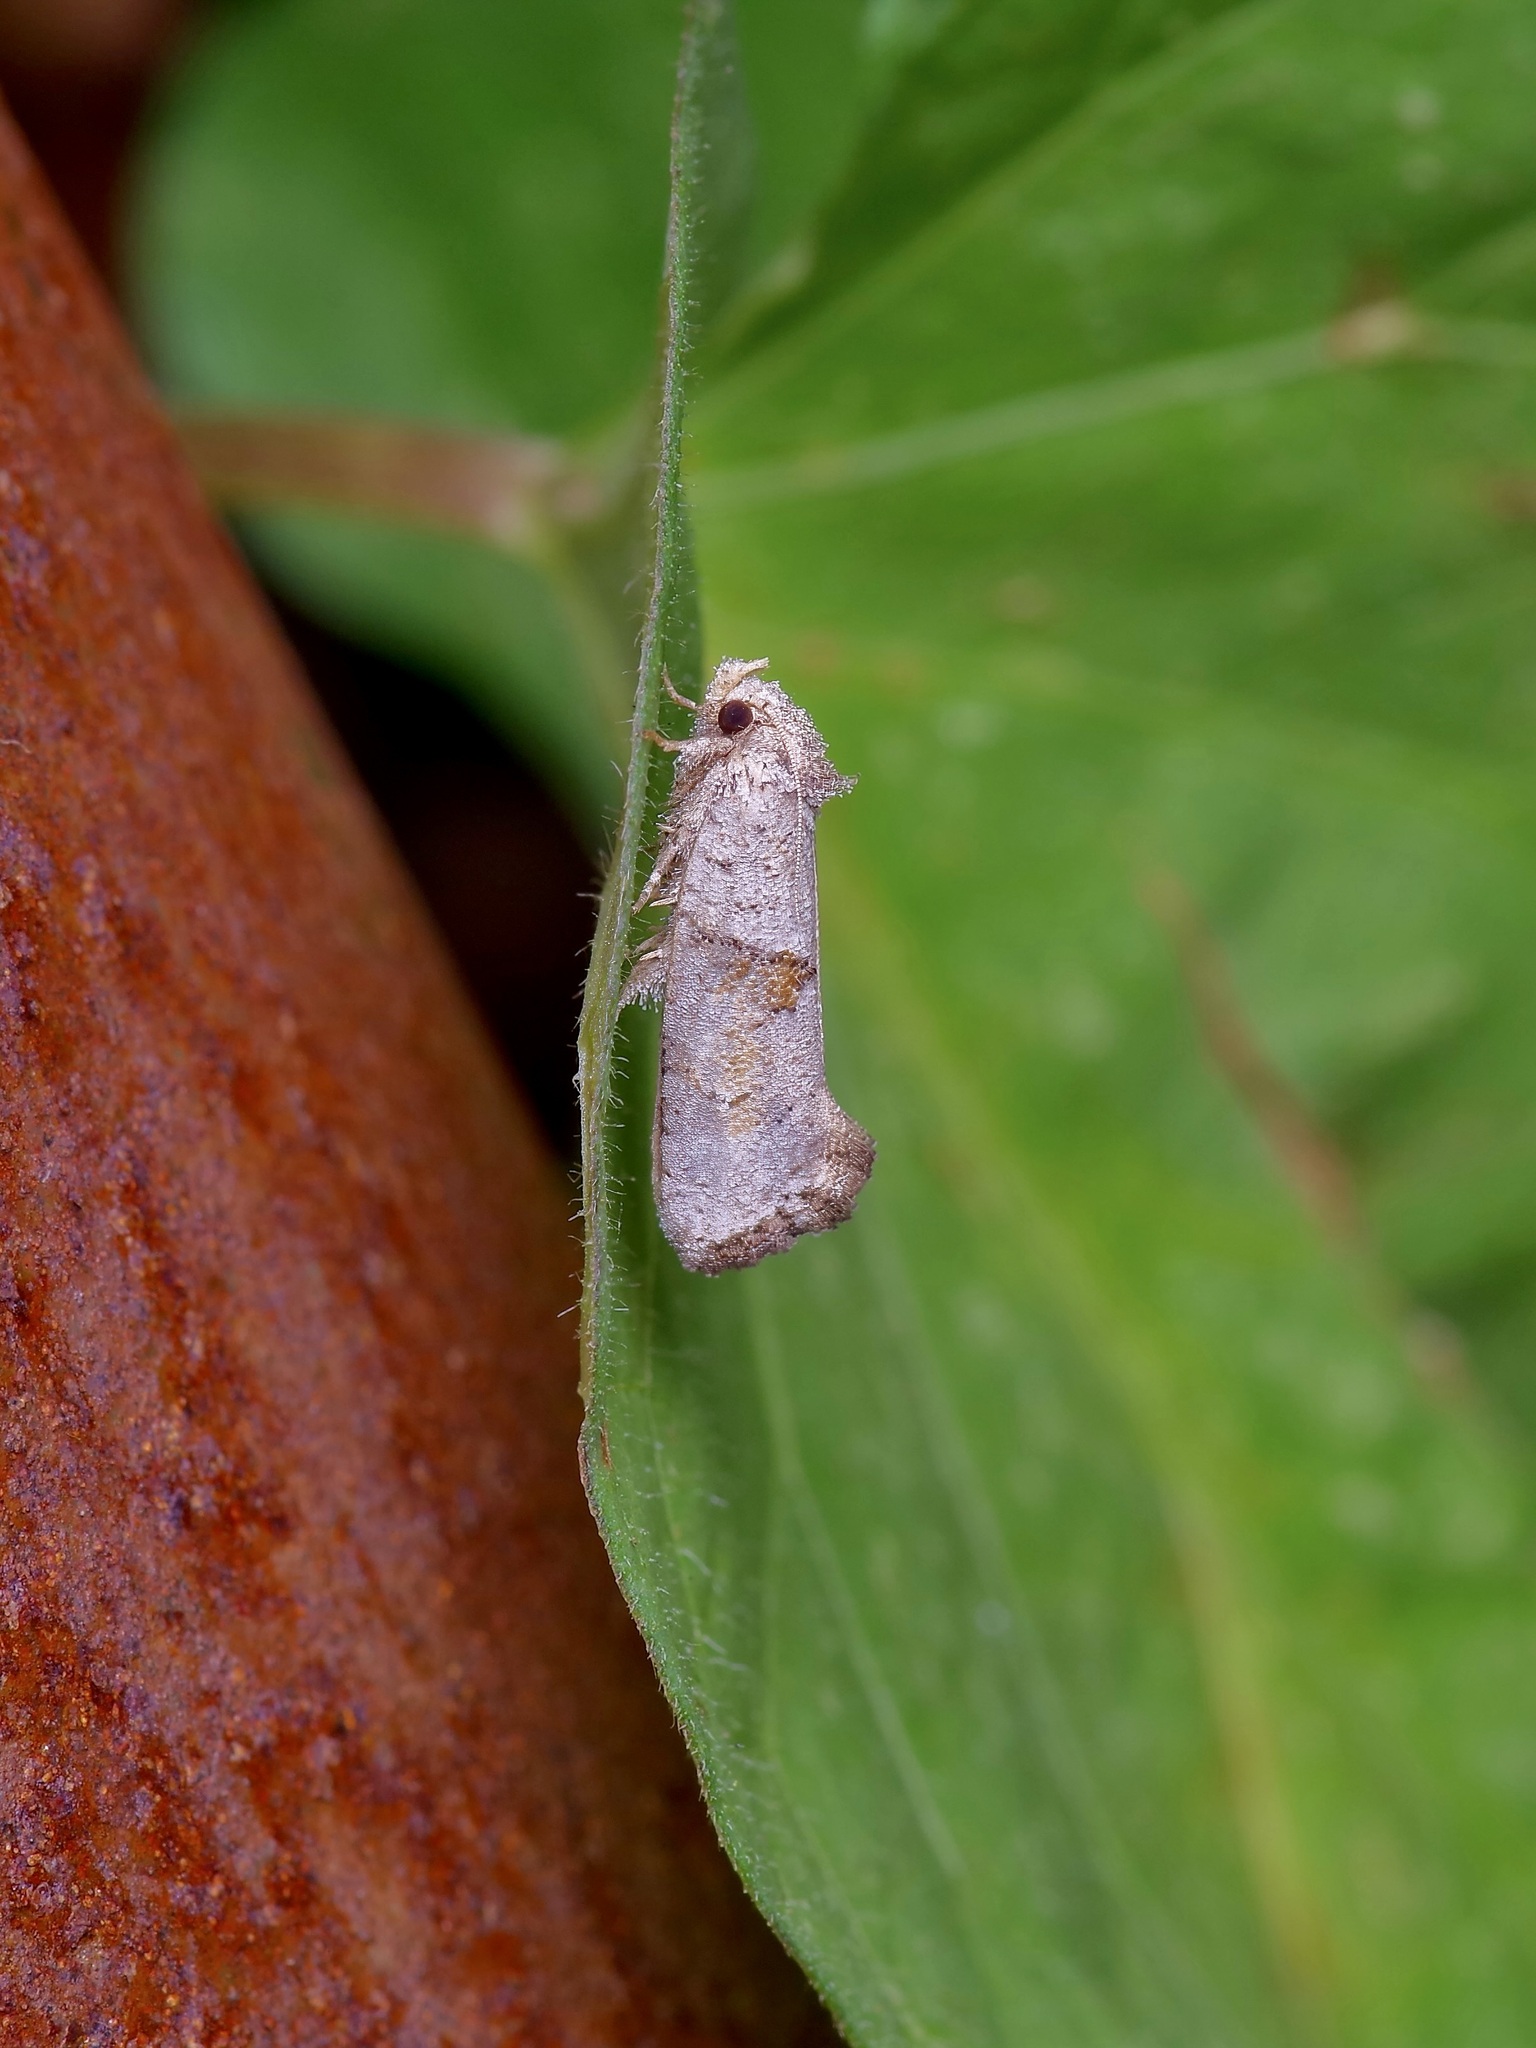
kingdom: Animalia
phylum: Arthropoda
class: Insecta
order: Lepidoptera
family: Tineidae
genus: Acrolophus
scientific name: Acrolophus piger
